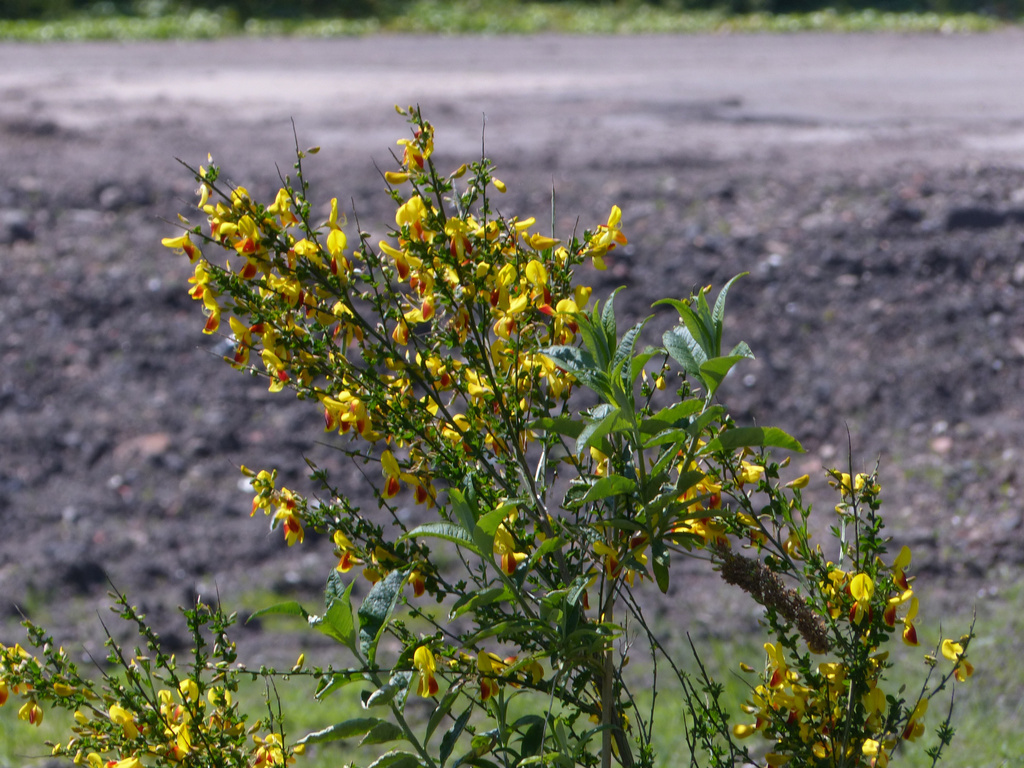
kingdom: Plantae
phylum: Tracheophyta
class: Magnoliopsida
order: Fabales
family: Fabaceae
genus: Cytisus
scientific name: Cytisus scoparius
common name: Scotch broom
